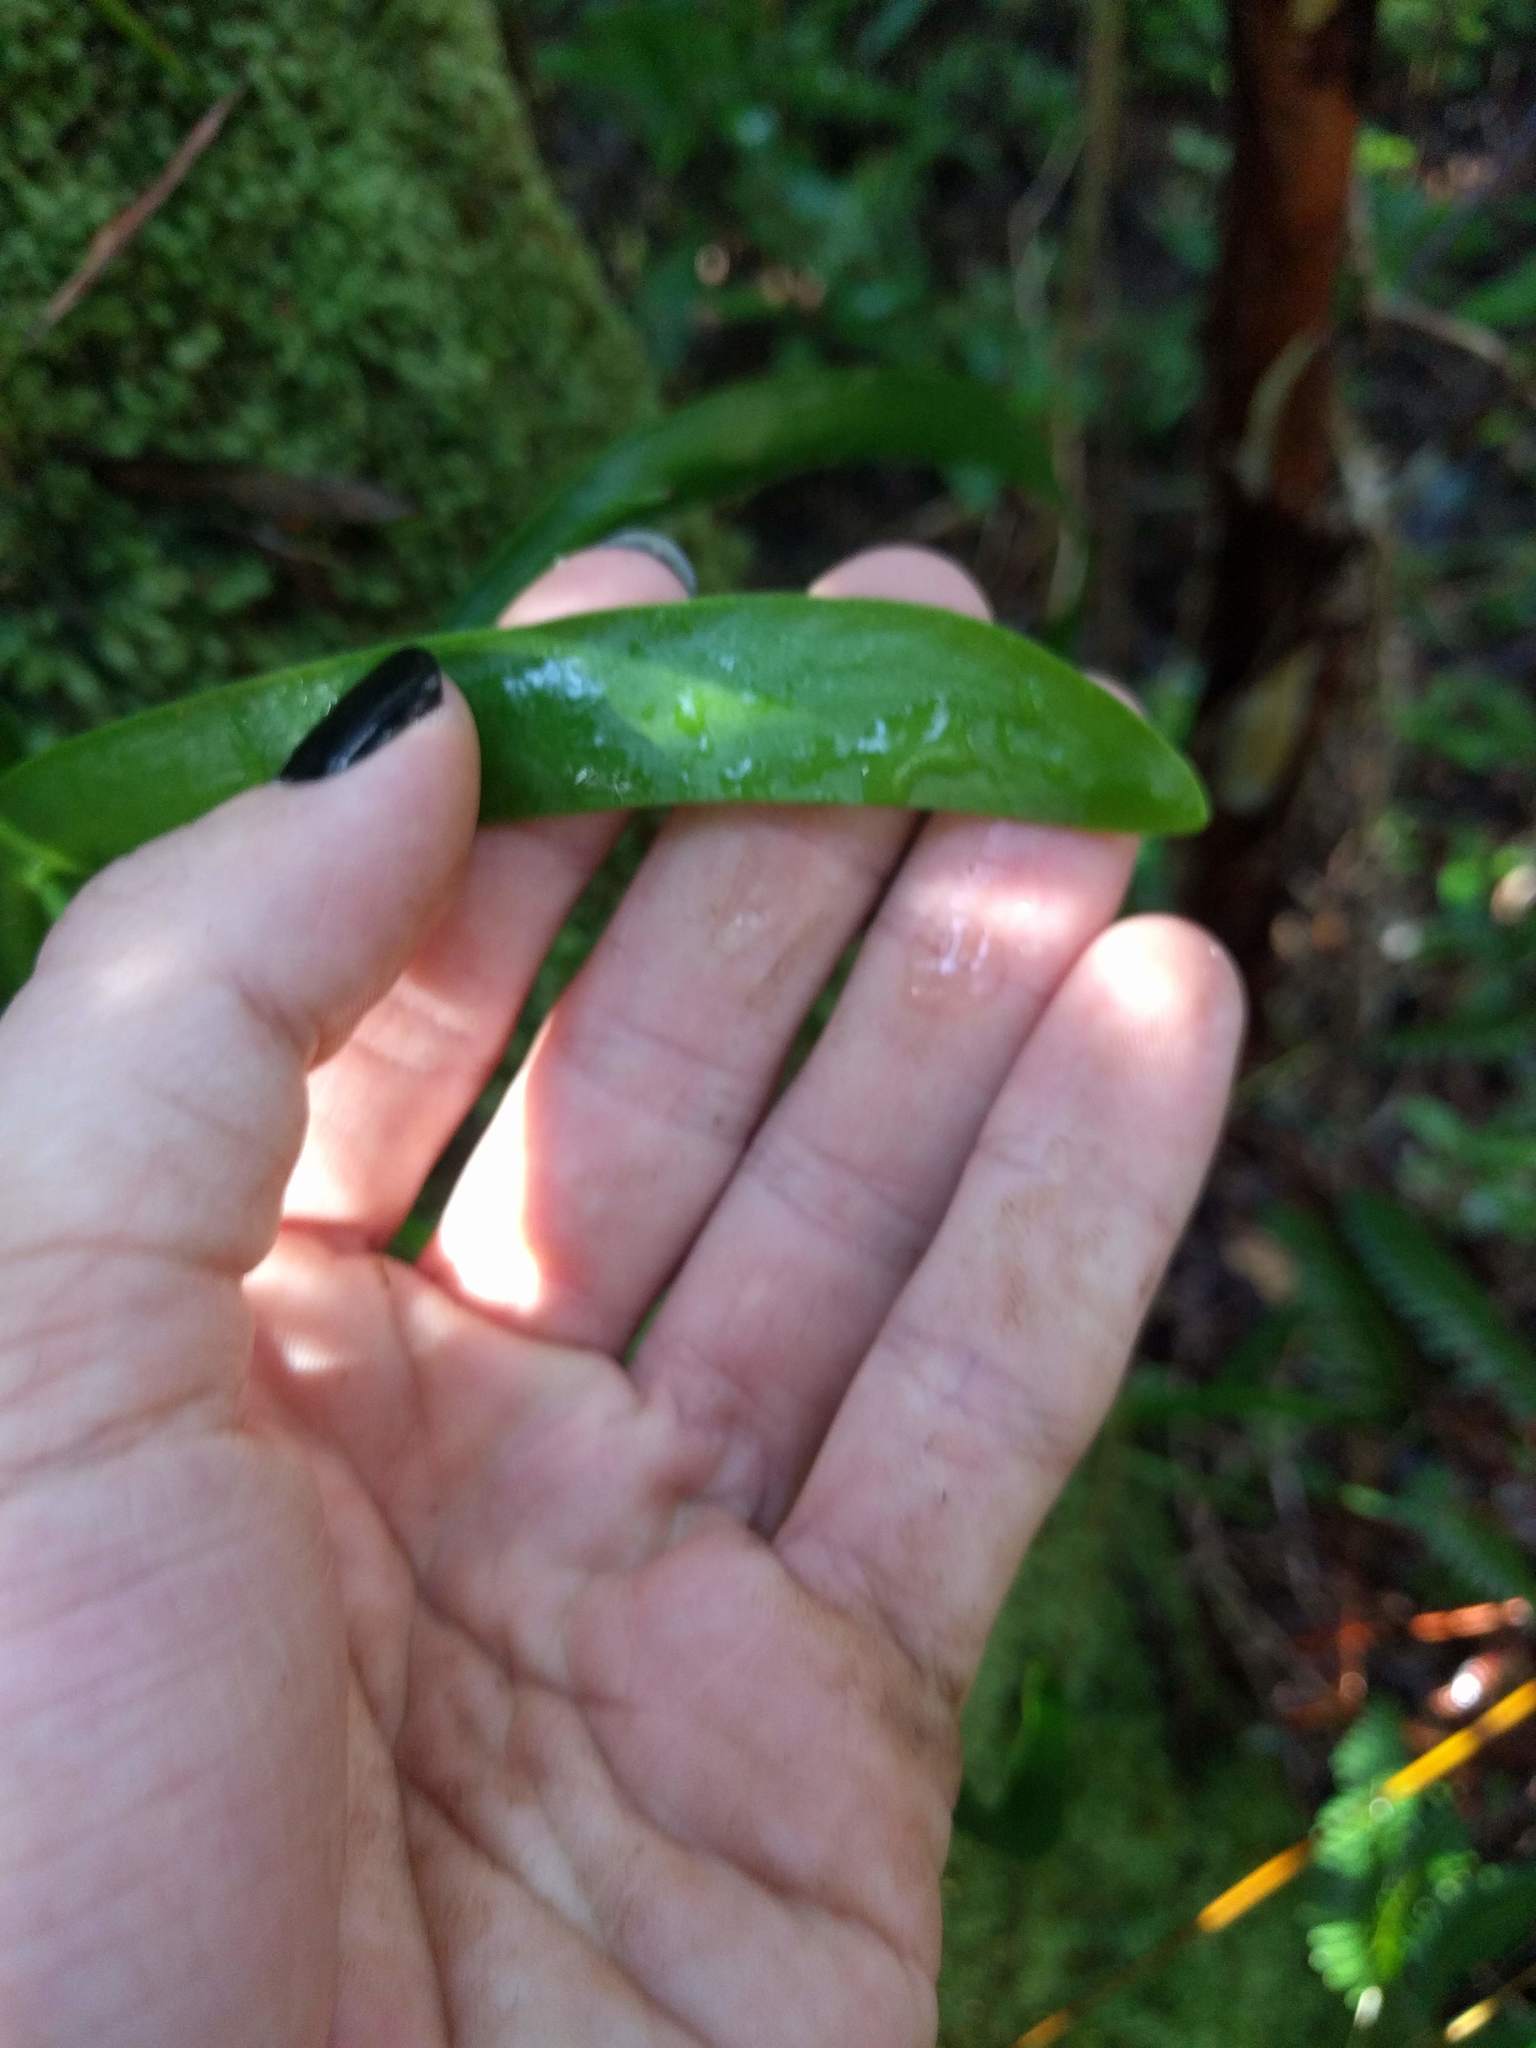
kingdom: Plantae
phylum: Tracheophyta
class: Polypodiopsida
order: Ophioglossales
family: Ophioglossaceae
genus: Ophioderma
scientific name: Ophioderma falcatum
